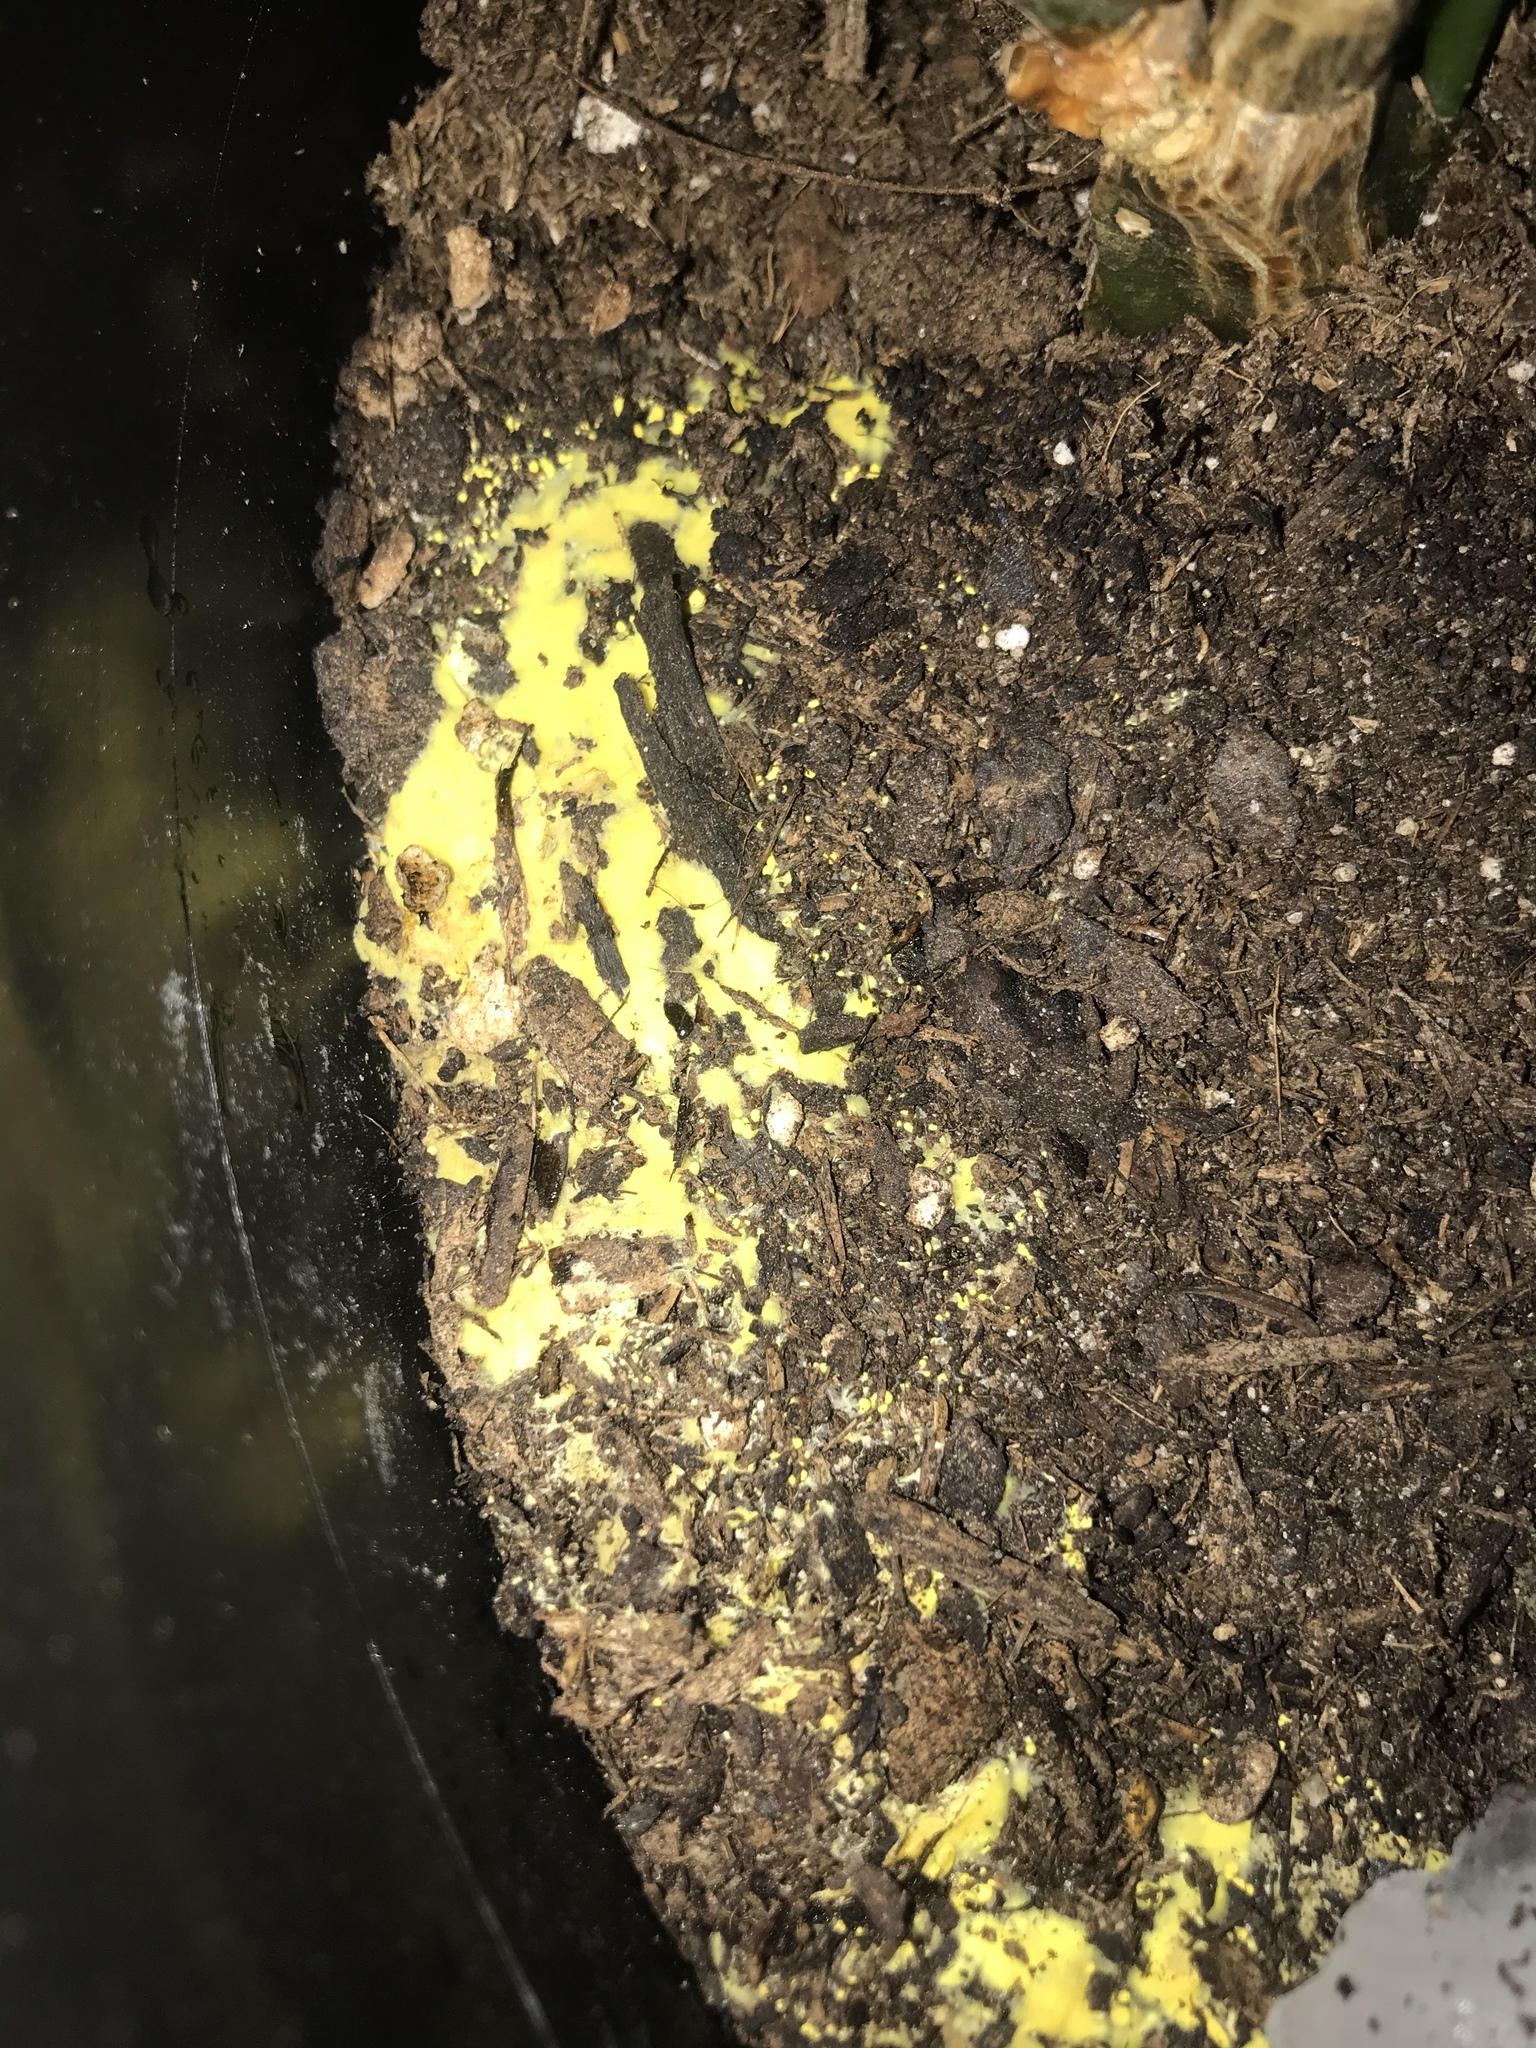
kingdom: Fungi
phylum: Basidiomycota
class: Agaricomycetes
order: Agaricales
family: Agaricaceae
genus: Leucocoprinus
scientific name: Leucocoprinus birnbaumii
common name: Plantpot dapperling
